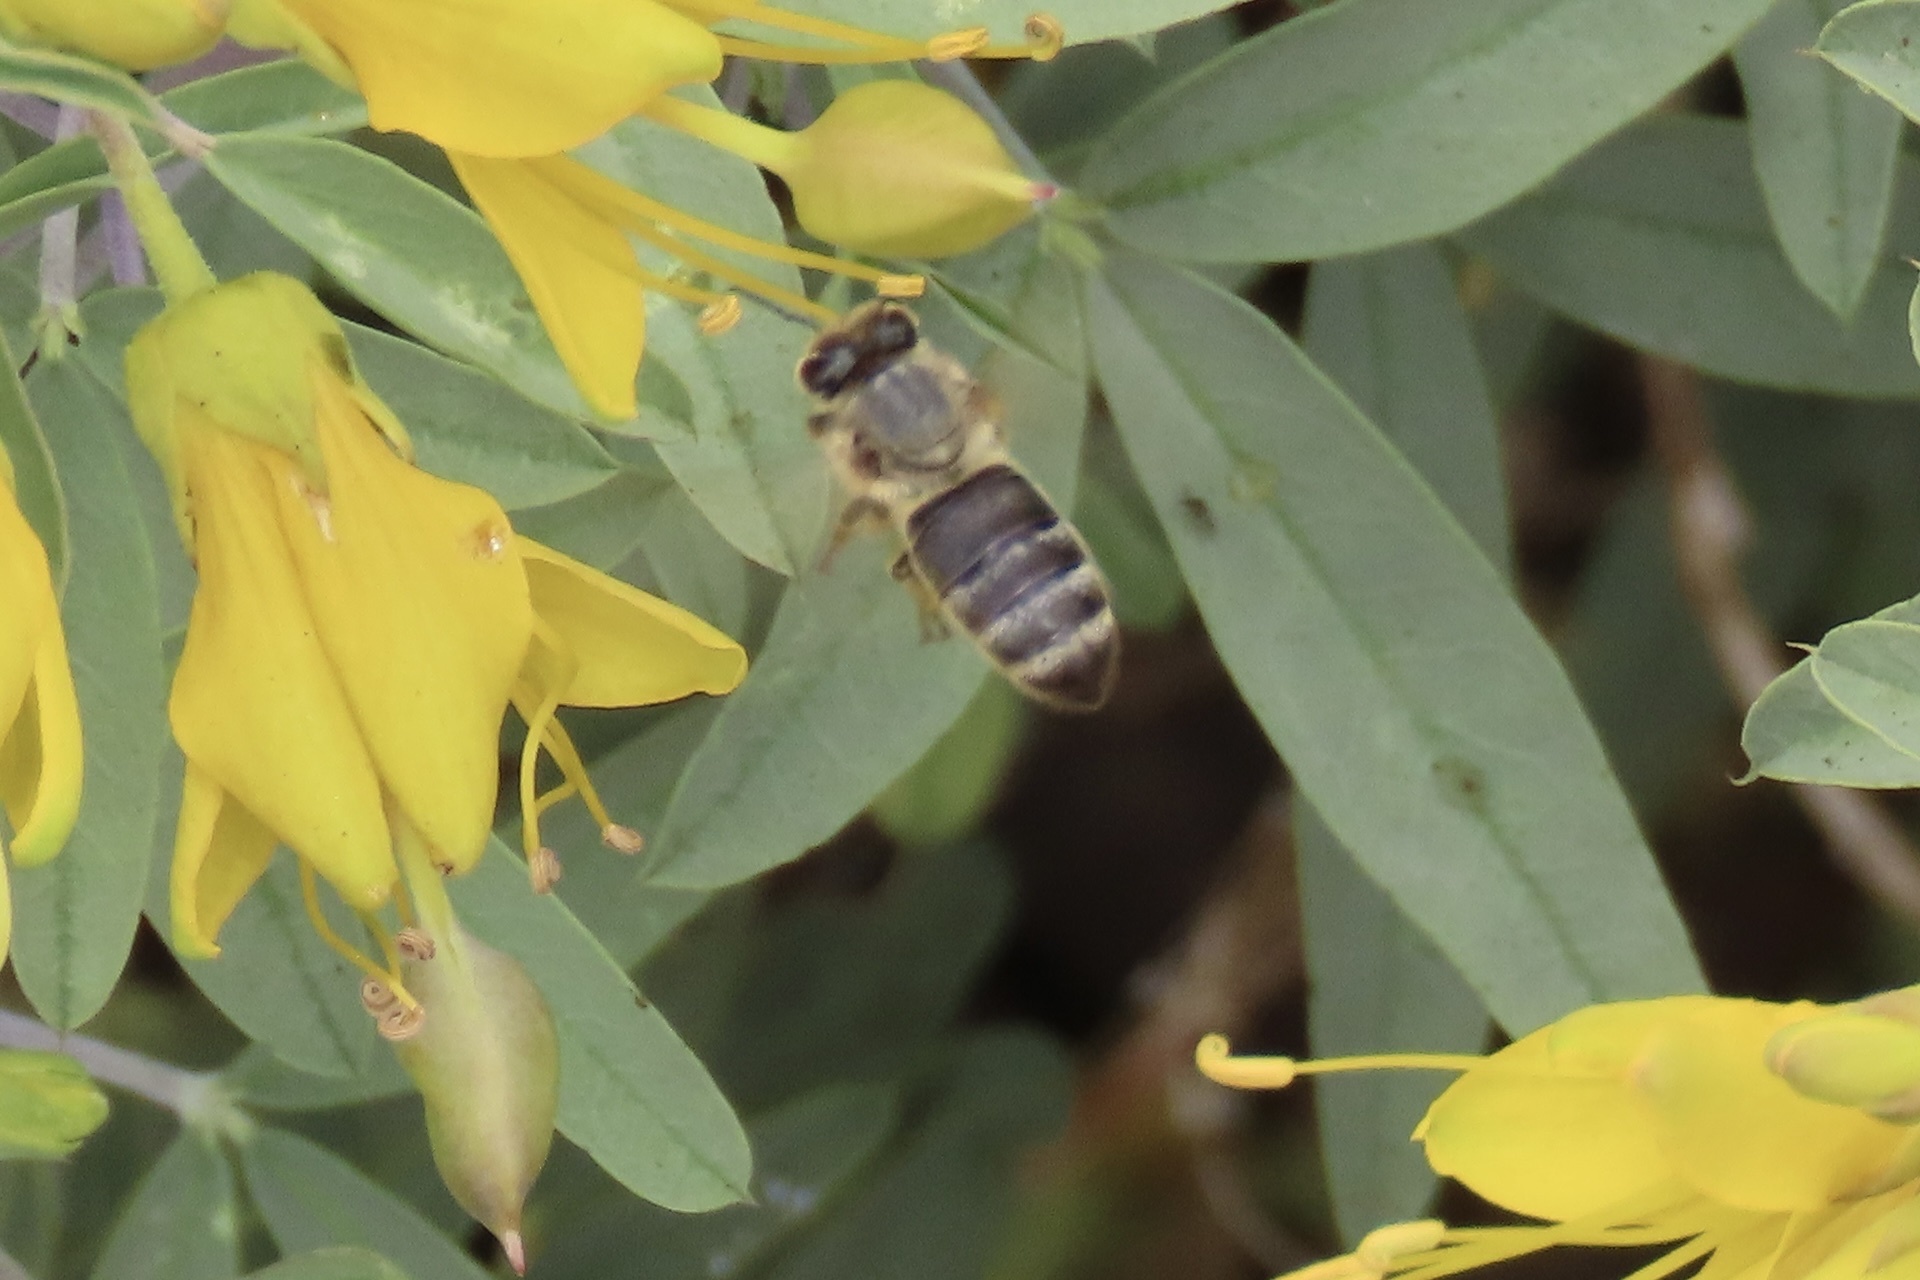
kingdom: Animalia
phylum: Arthropoda
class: Insecta
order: Hymenoptera
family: Apidae
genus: Apis
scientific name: Apis mellifera
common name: Honey bee
